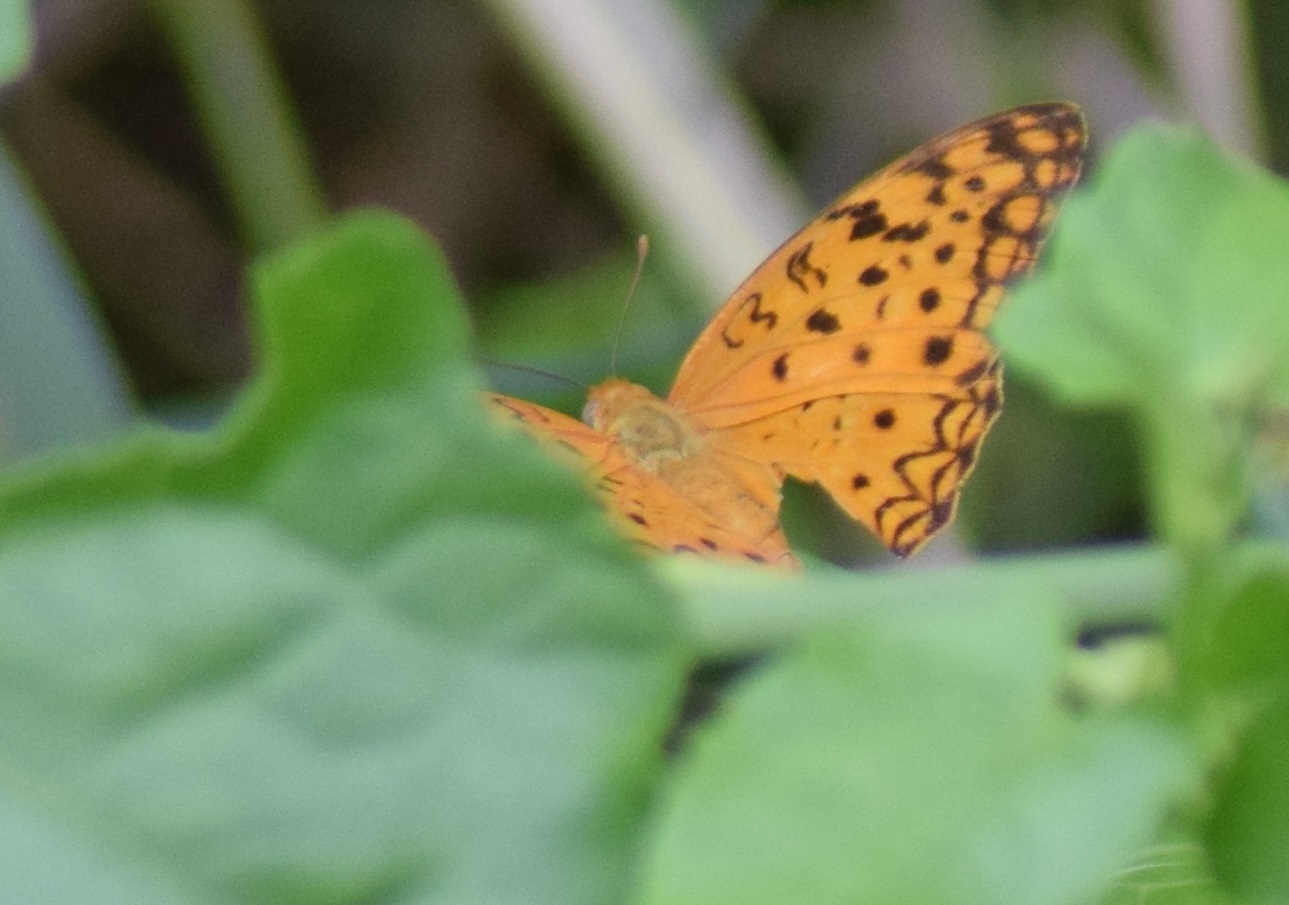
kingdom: Animalia
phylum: Arthropoda
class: Insecta
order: Lepidoptera
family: Nymphalidae
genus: Phalanta
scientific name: Phalanta phalantha
